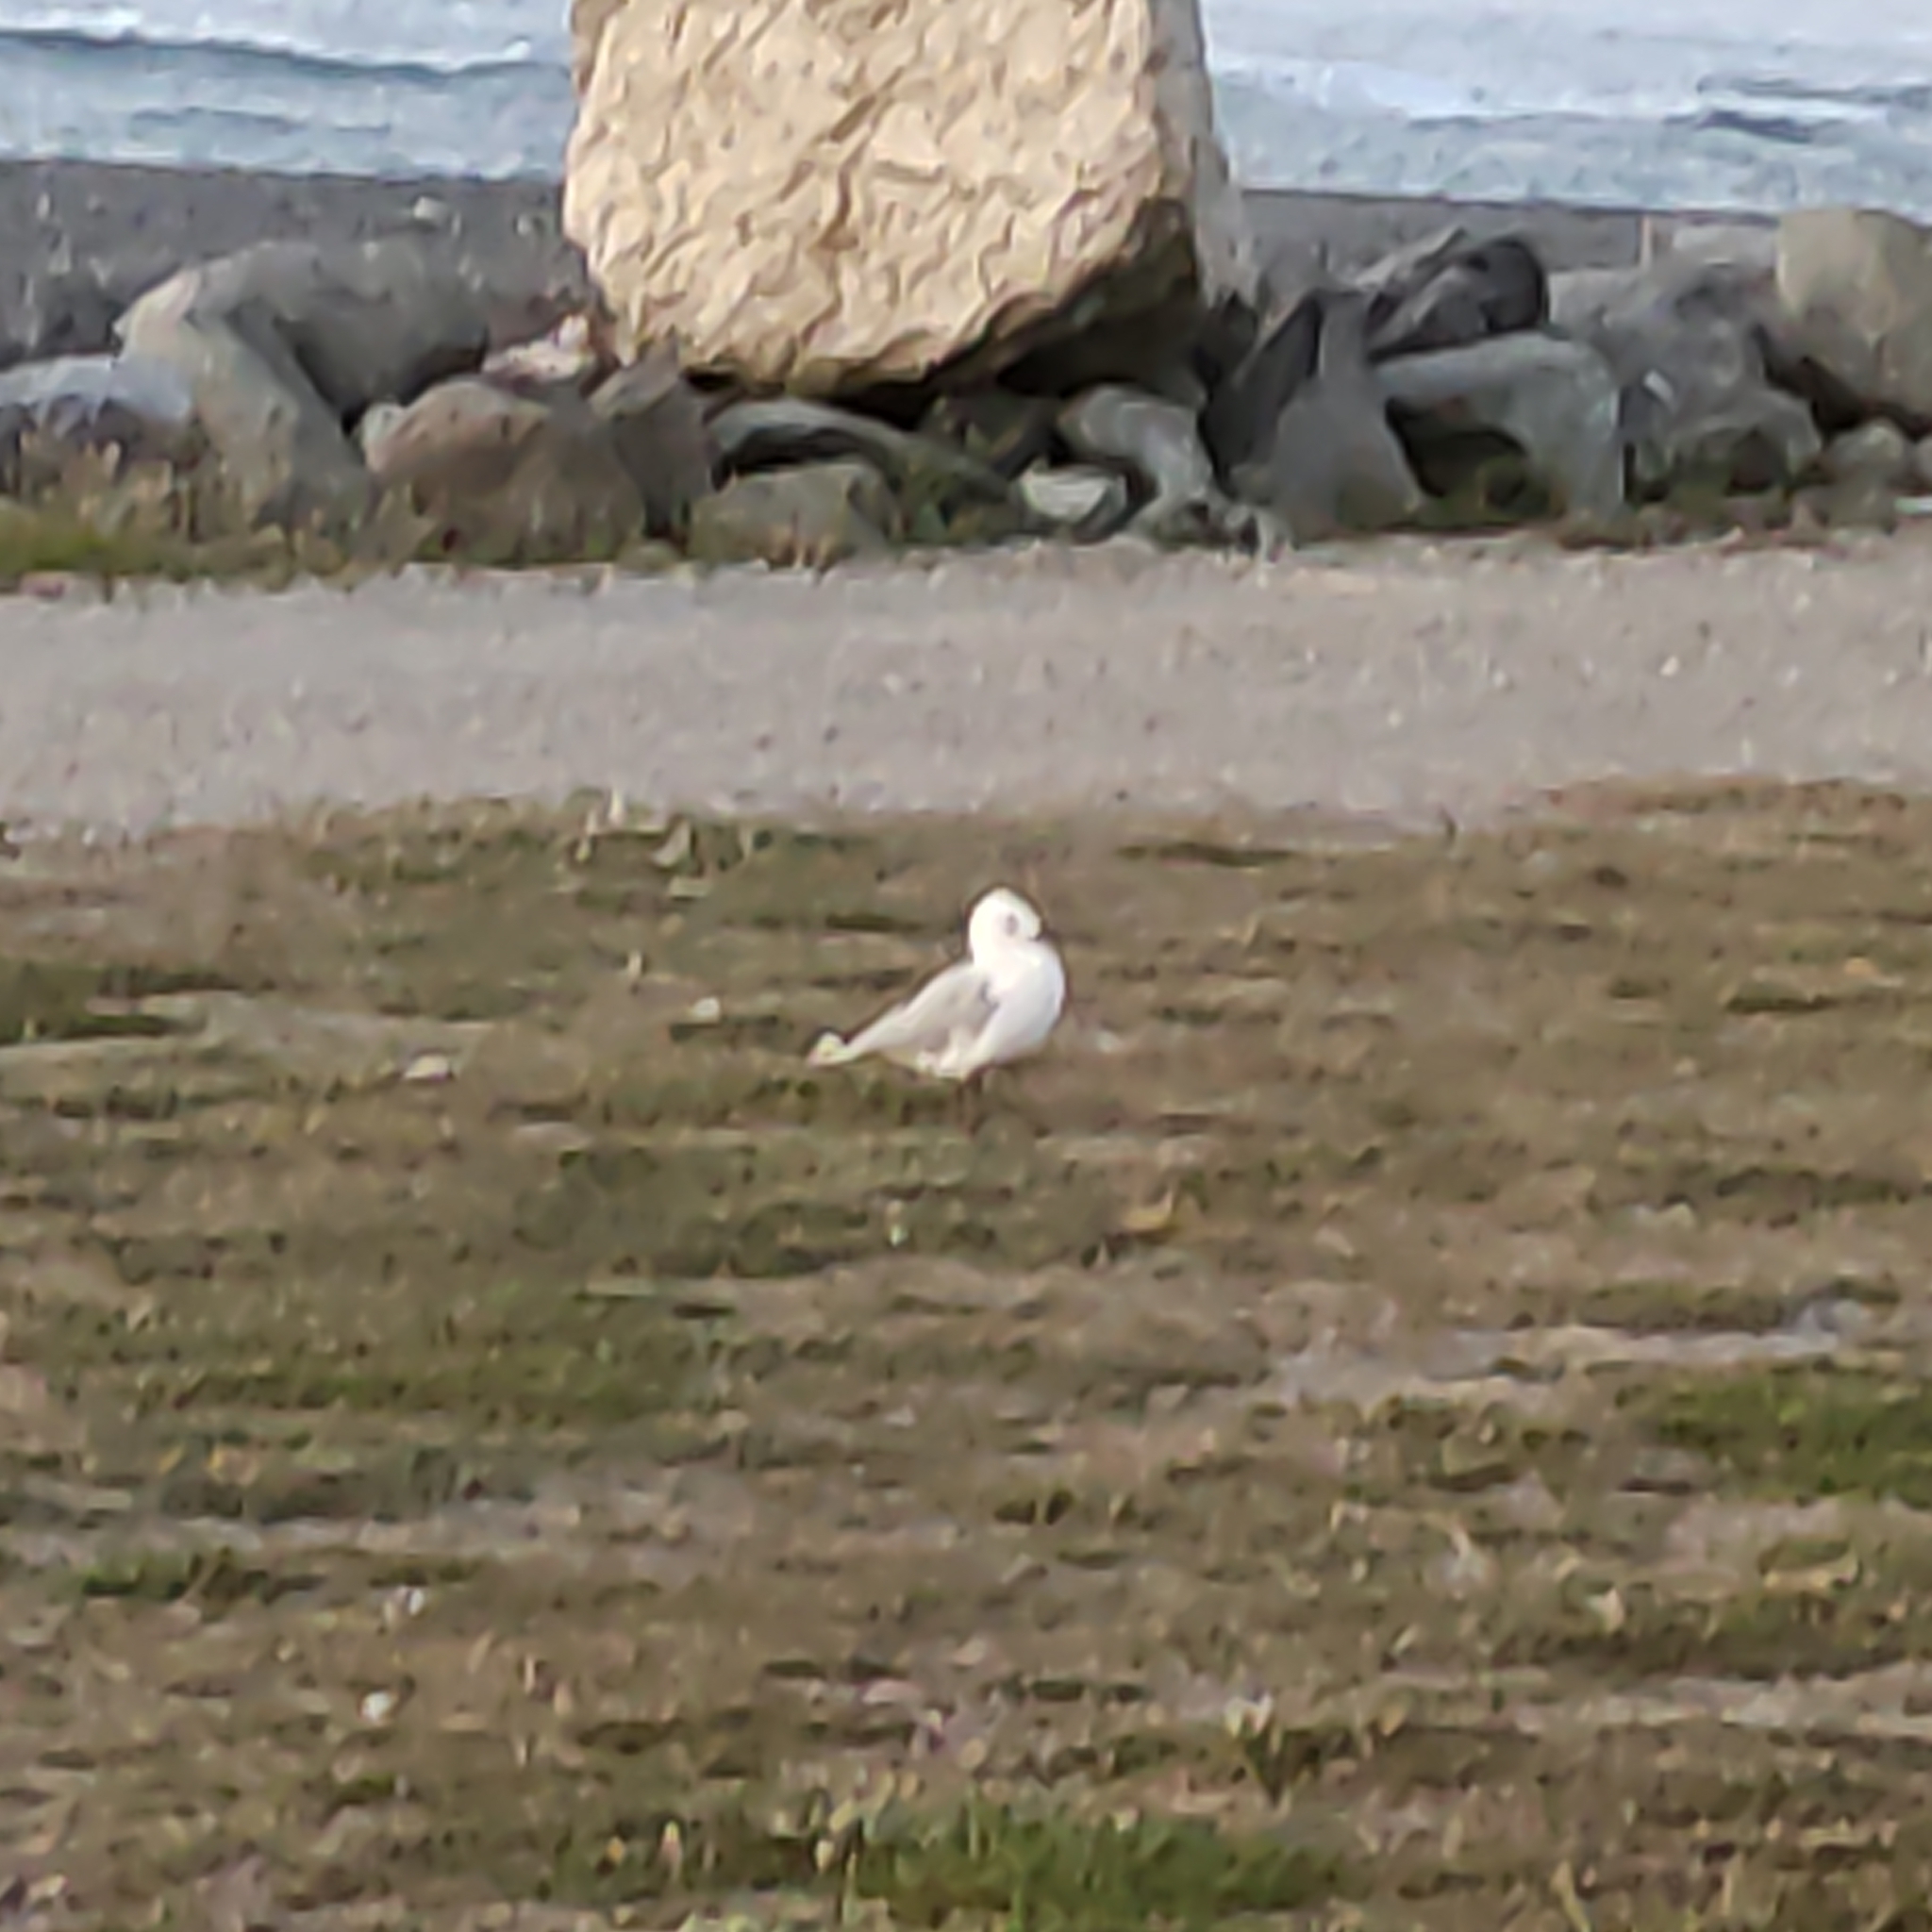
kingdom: Animalia
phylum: Chordata
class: Aves
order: Charadriiformes
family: Laridae
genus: Chroicocephalus
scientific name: Chroicocephalus novaehollandiae
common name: Silver gull
